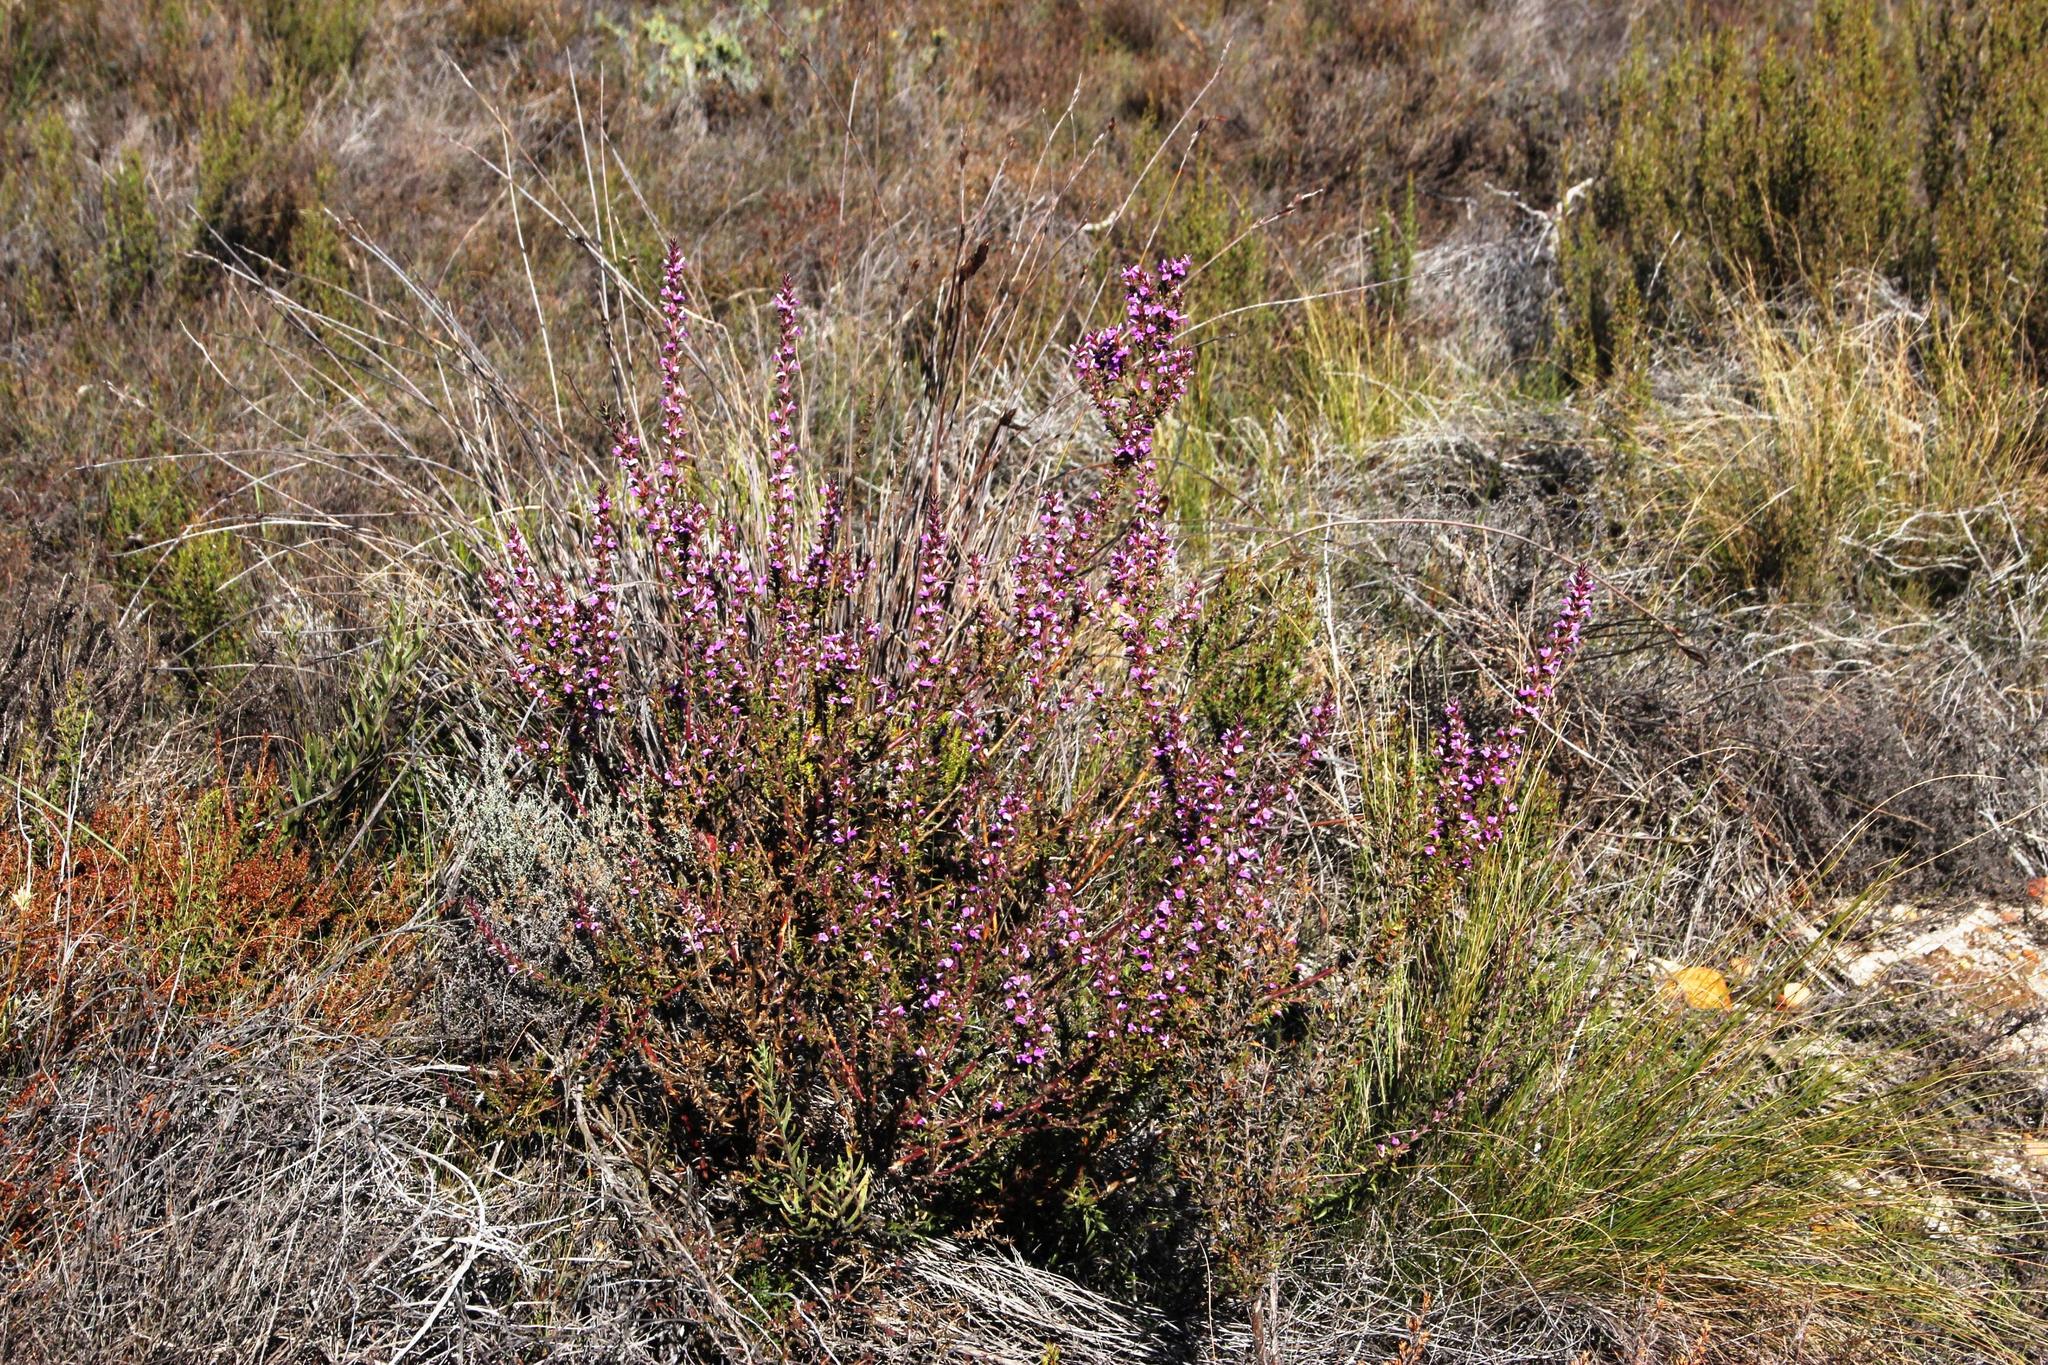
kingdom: Plantae
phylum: Tracheophyta
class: Magnoliopsida
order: Fabales
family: Polygalaceae
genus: Muraltia
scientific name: Muraltia heisteria
